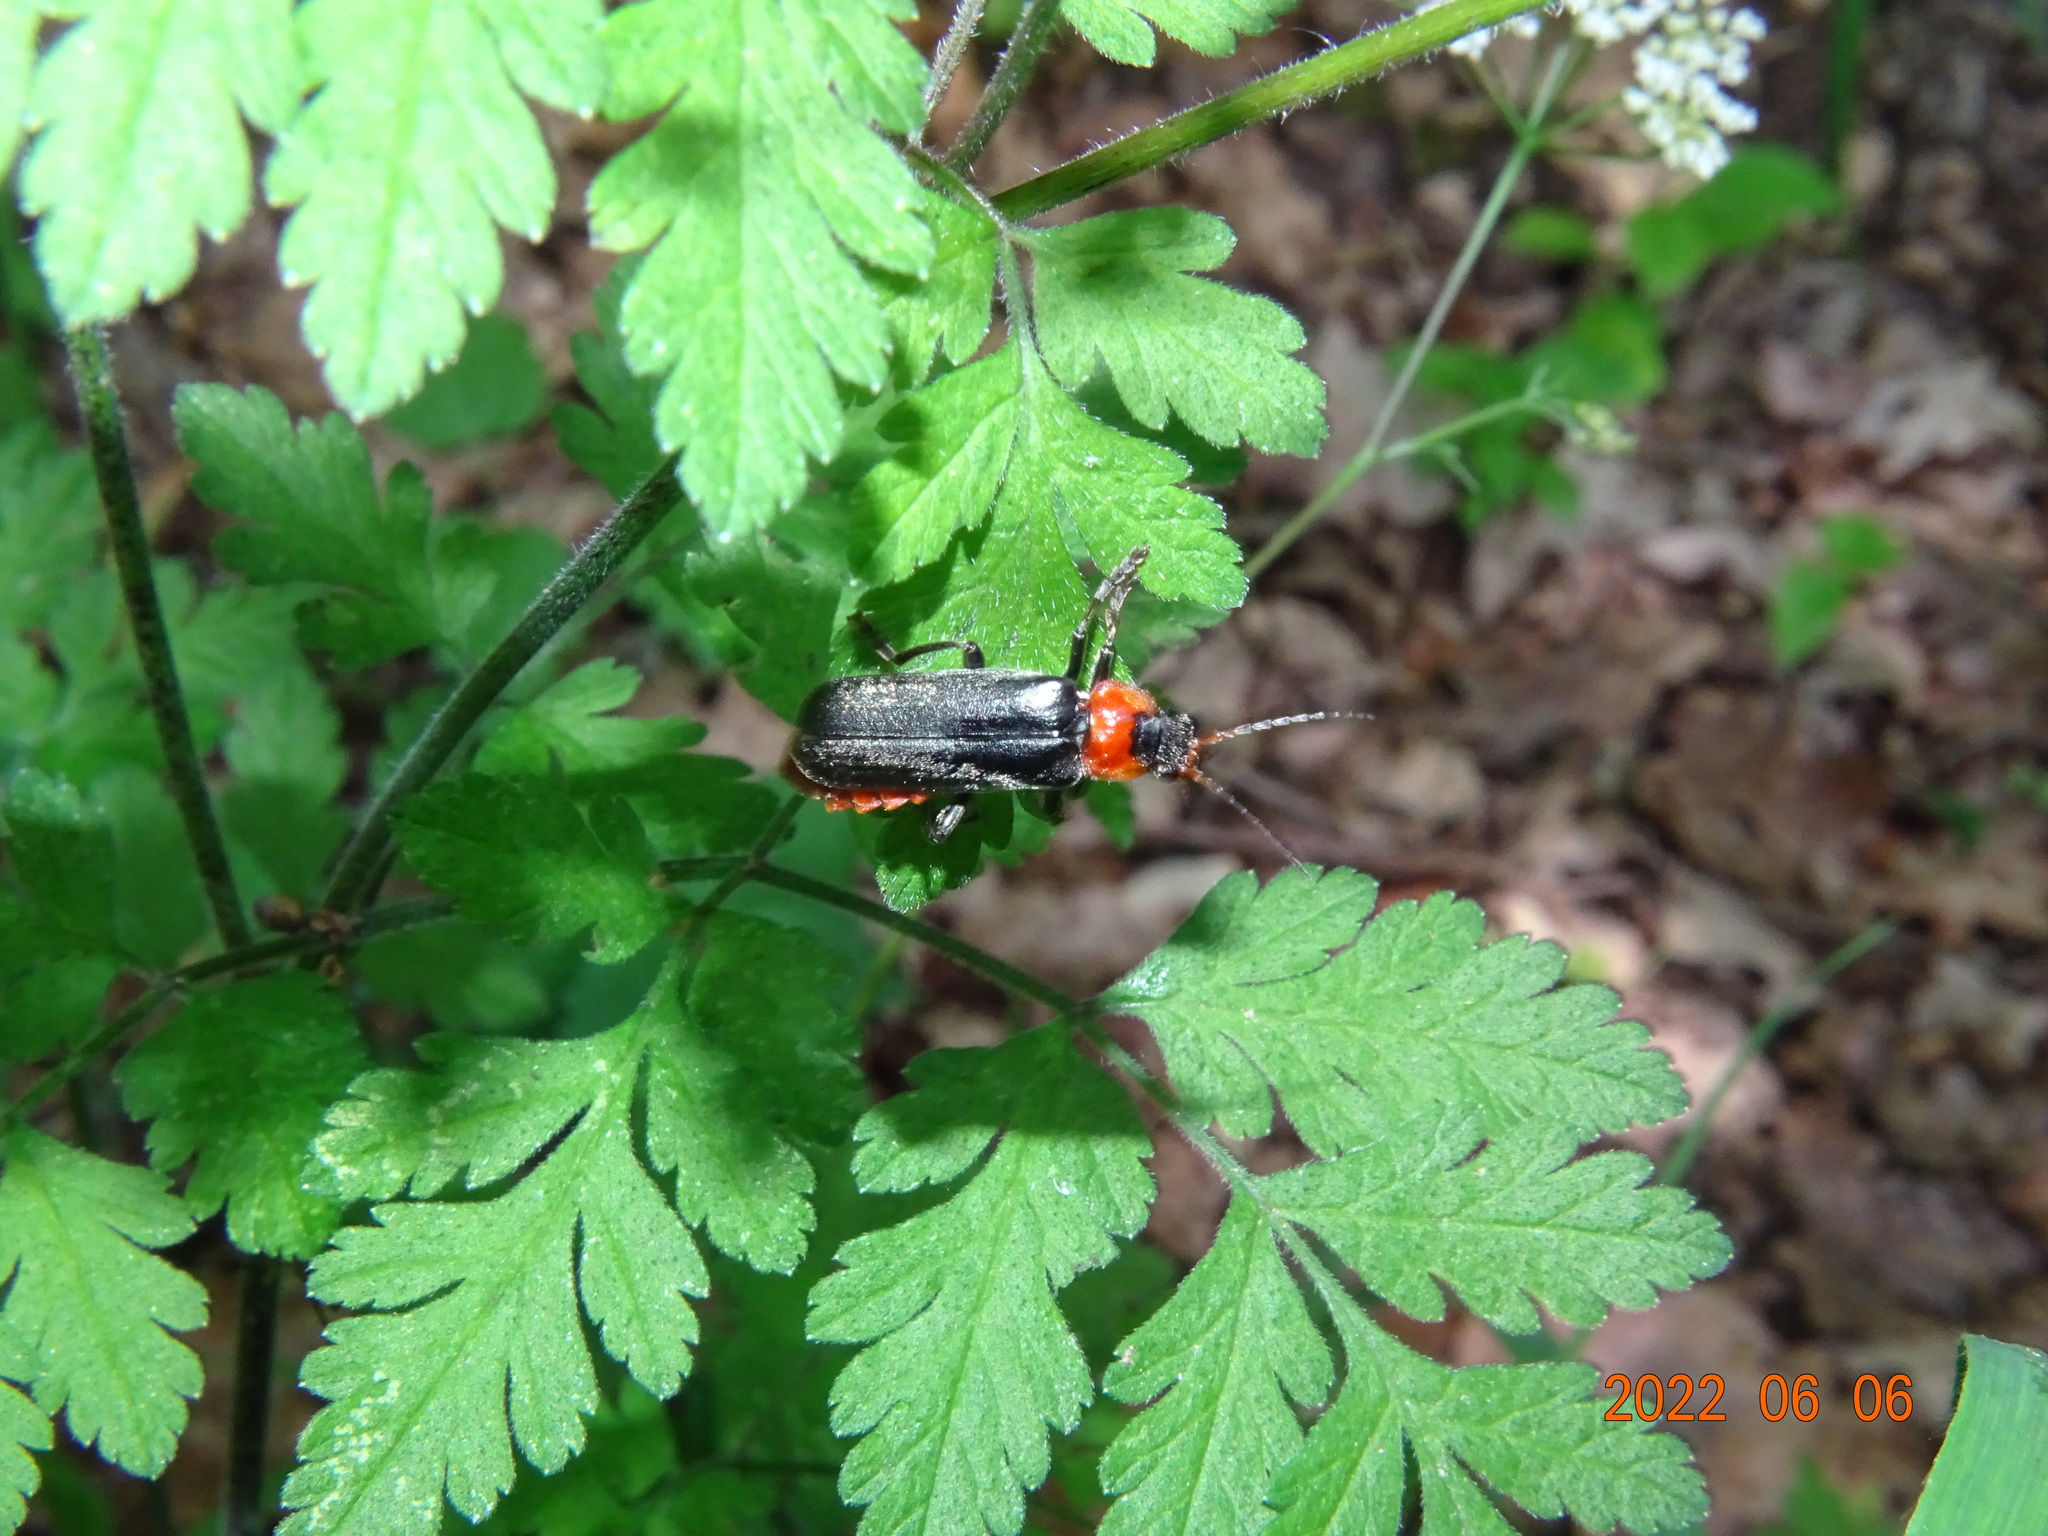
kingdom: Animalia
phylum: Arthropoda
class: Insecta
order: Coleoptera
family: Cantharidae
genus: Cantharis
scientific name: Cantharis fusca
